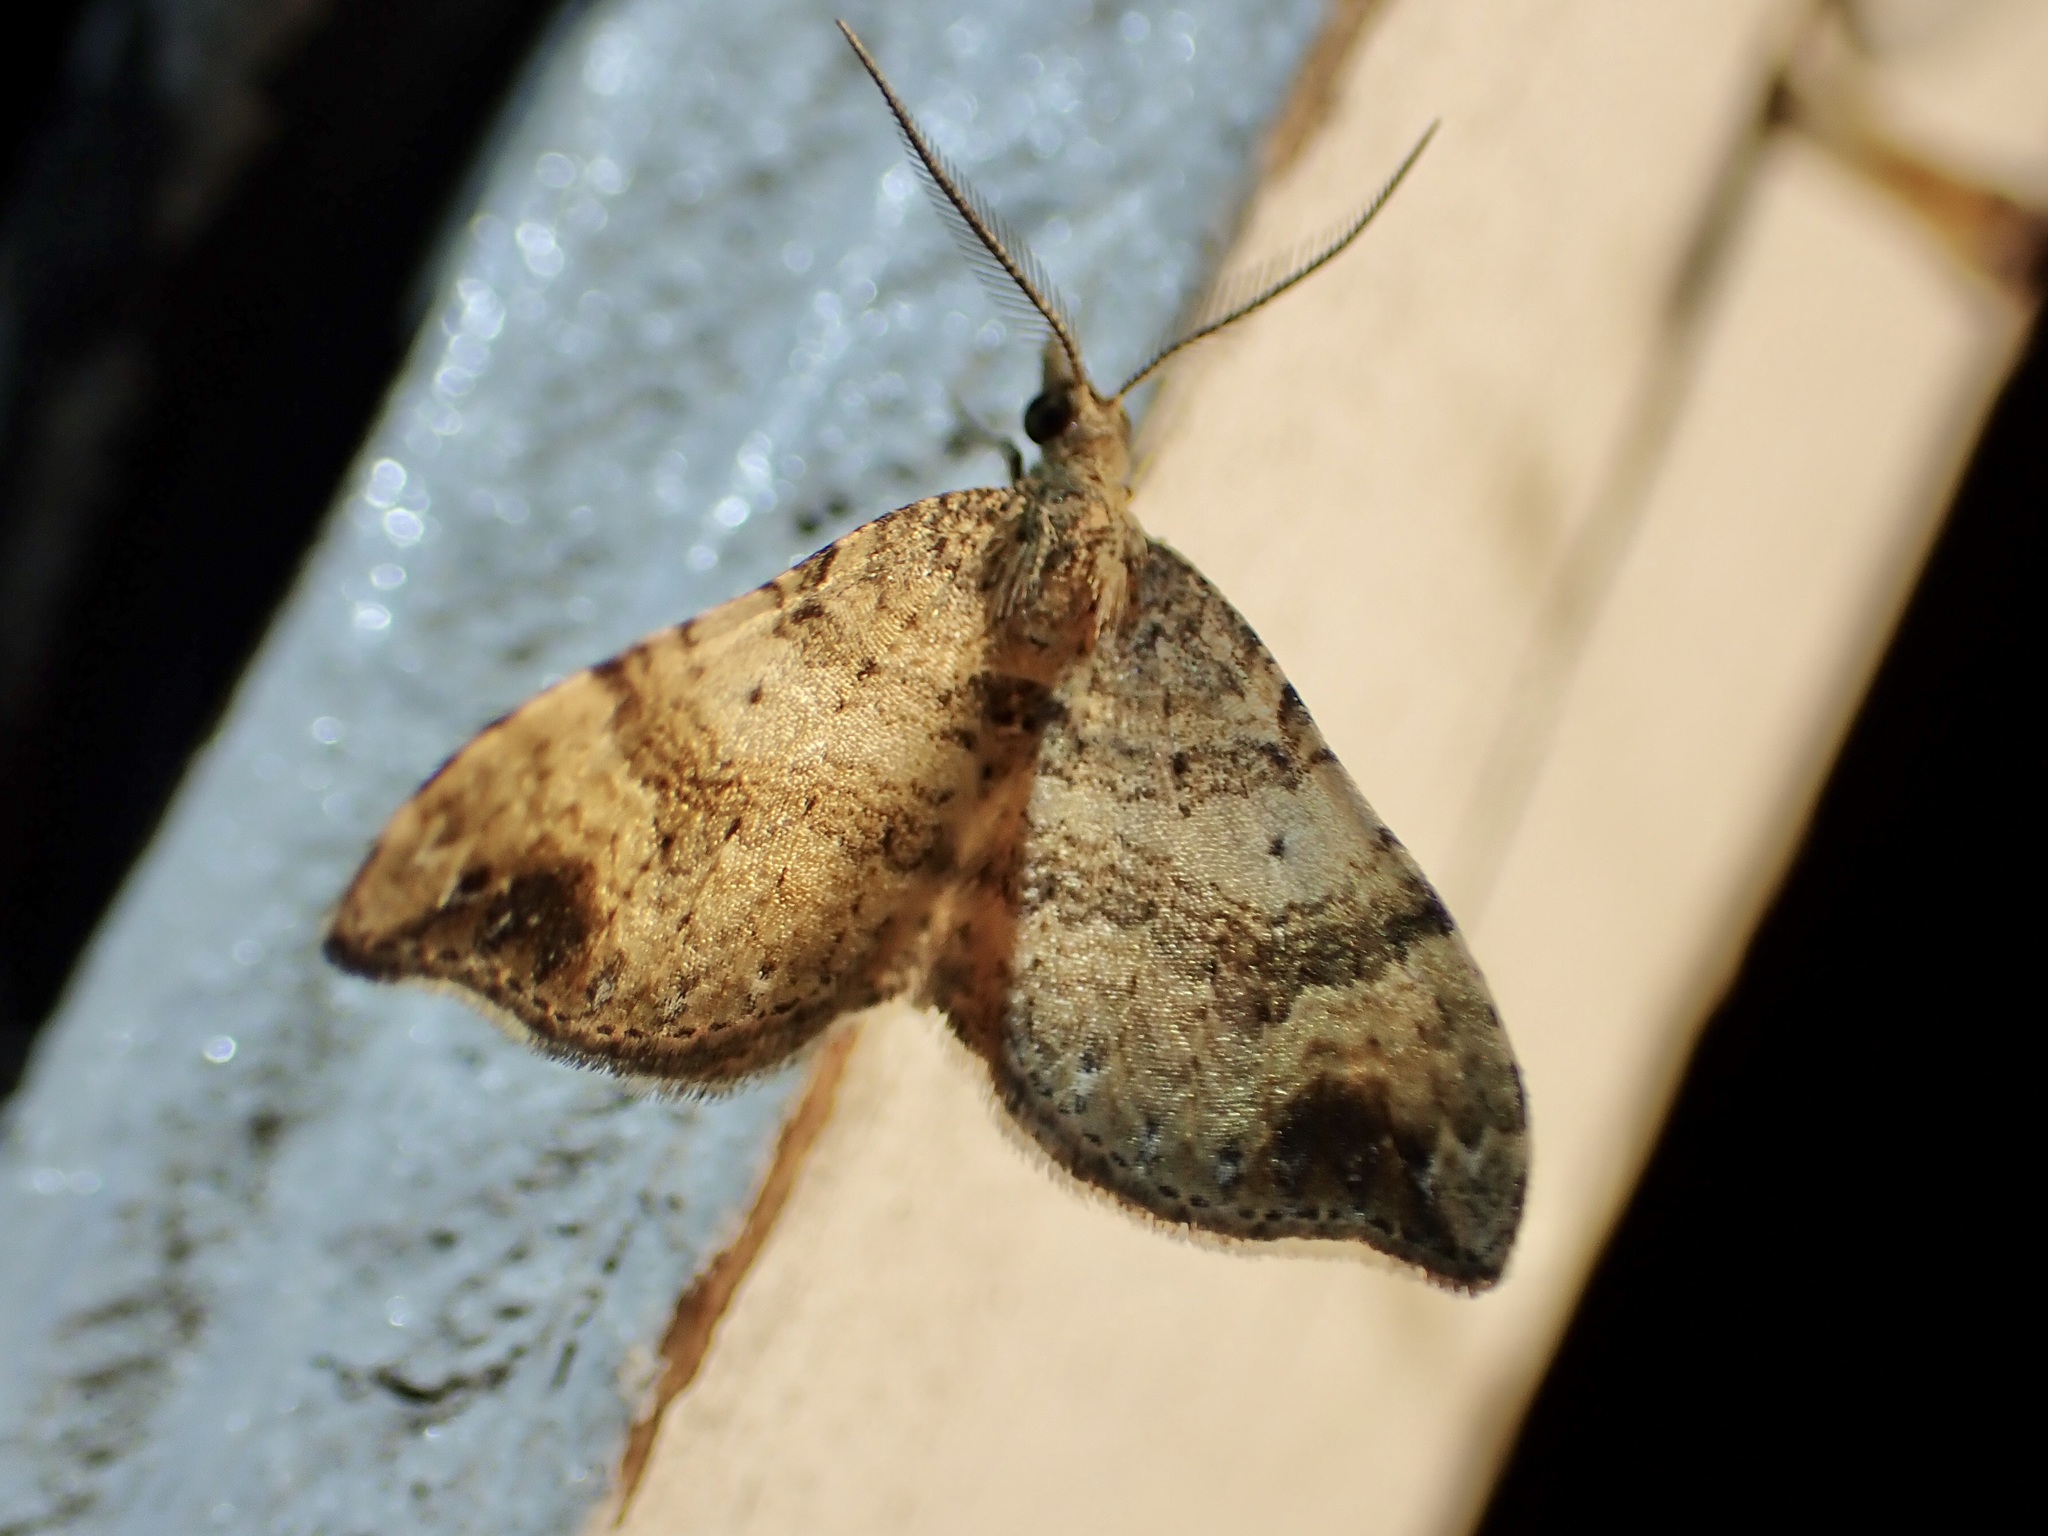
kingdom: Animalia
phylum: Arthropoda
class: Insecta
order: Lepidoptera
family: Geometridae
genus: Homodotis
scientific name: Homodotis megaspilata
